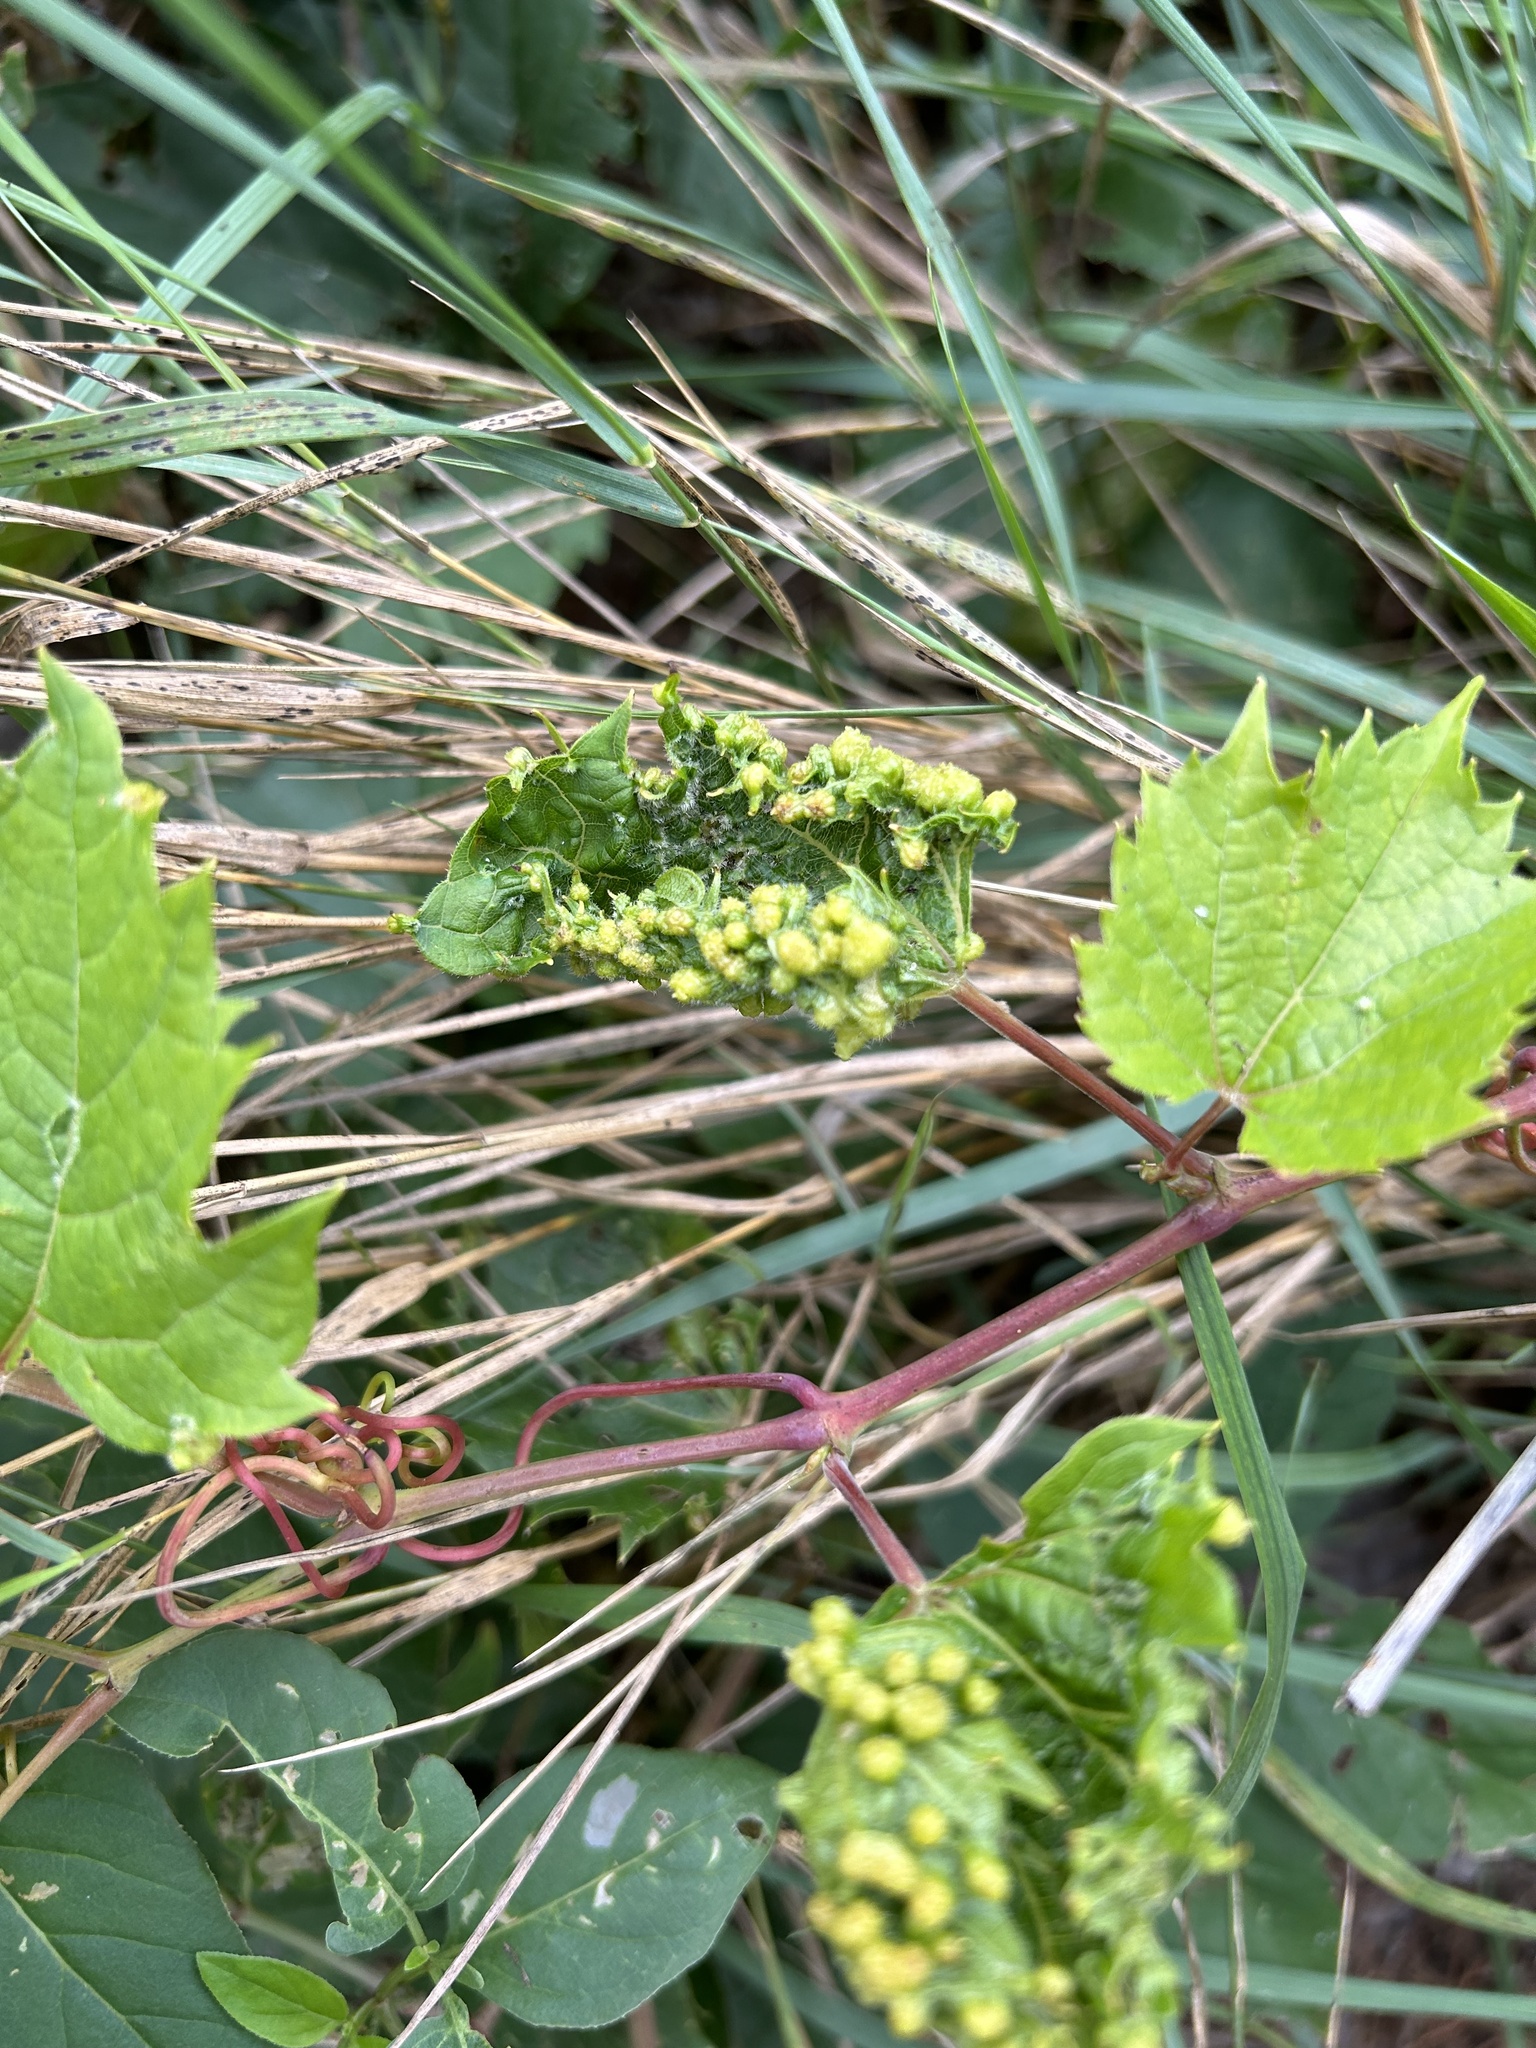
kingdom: Animalia
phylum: Arthropoda
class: Insecta
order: Hemiptera
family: Phylloxeridae
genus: Daktulosphaira
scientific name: Daktulosphaira vitifoliae
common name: Grape phylloxera
